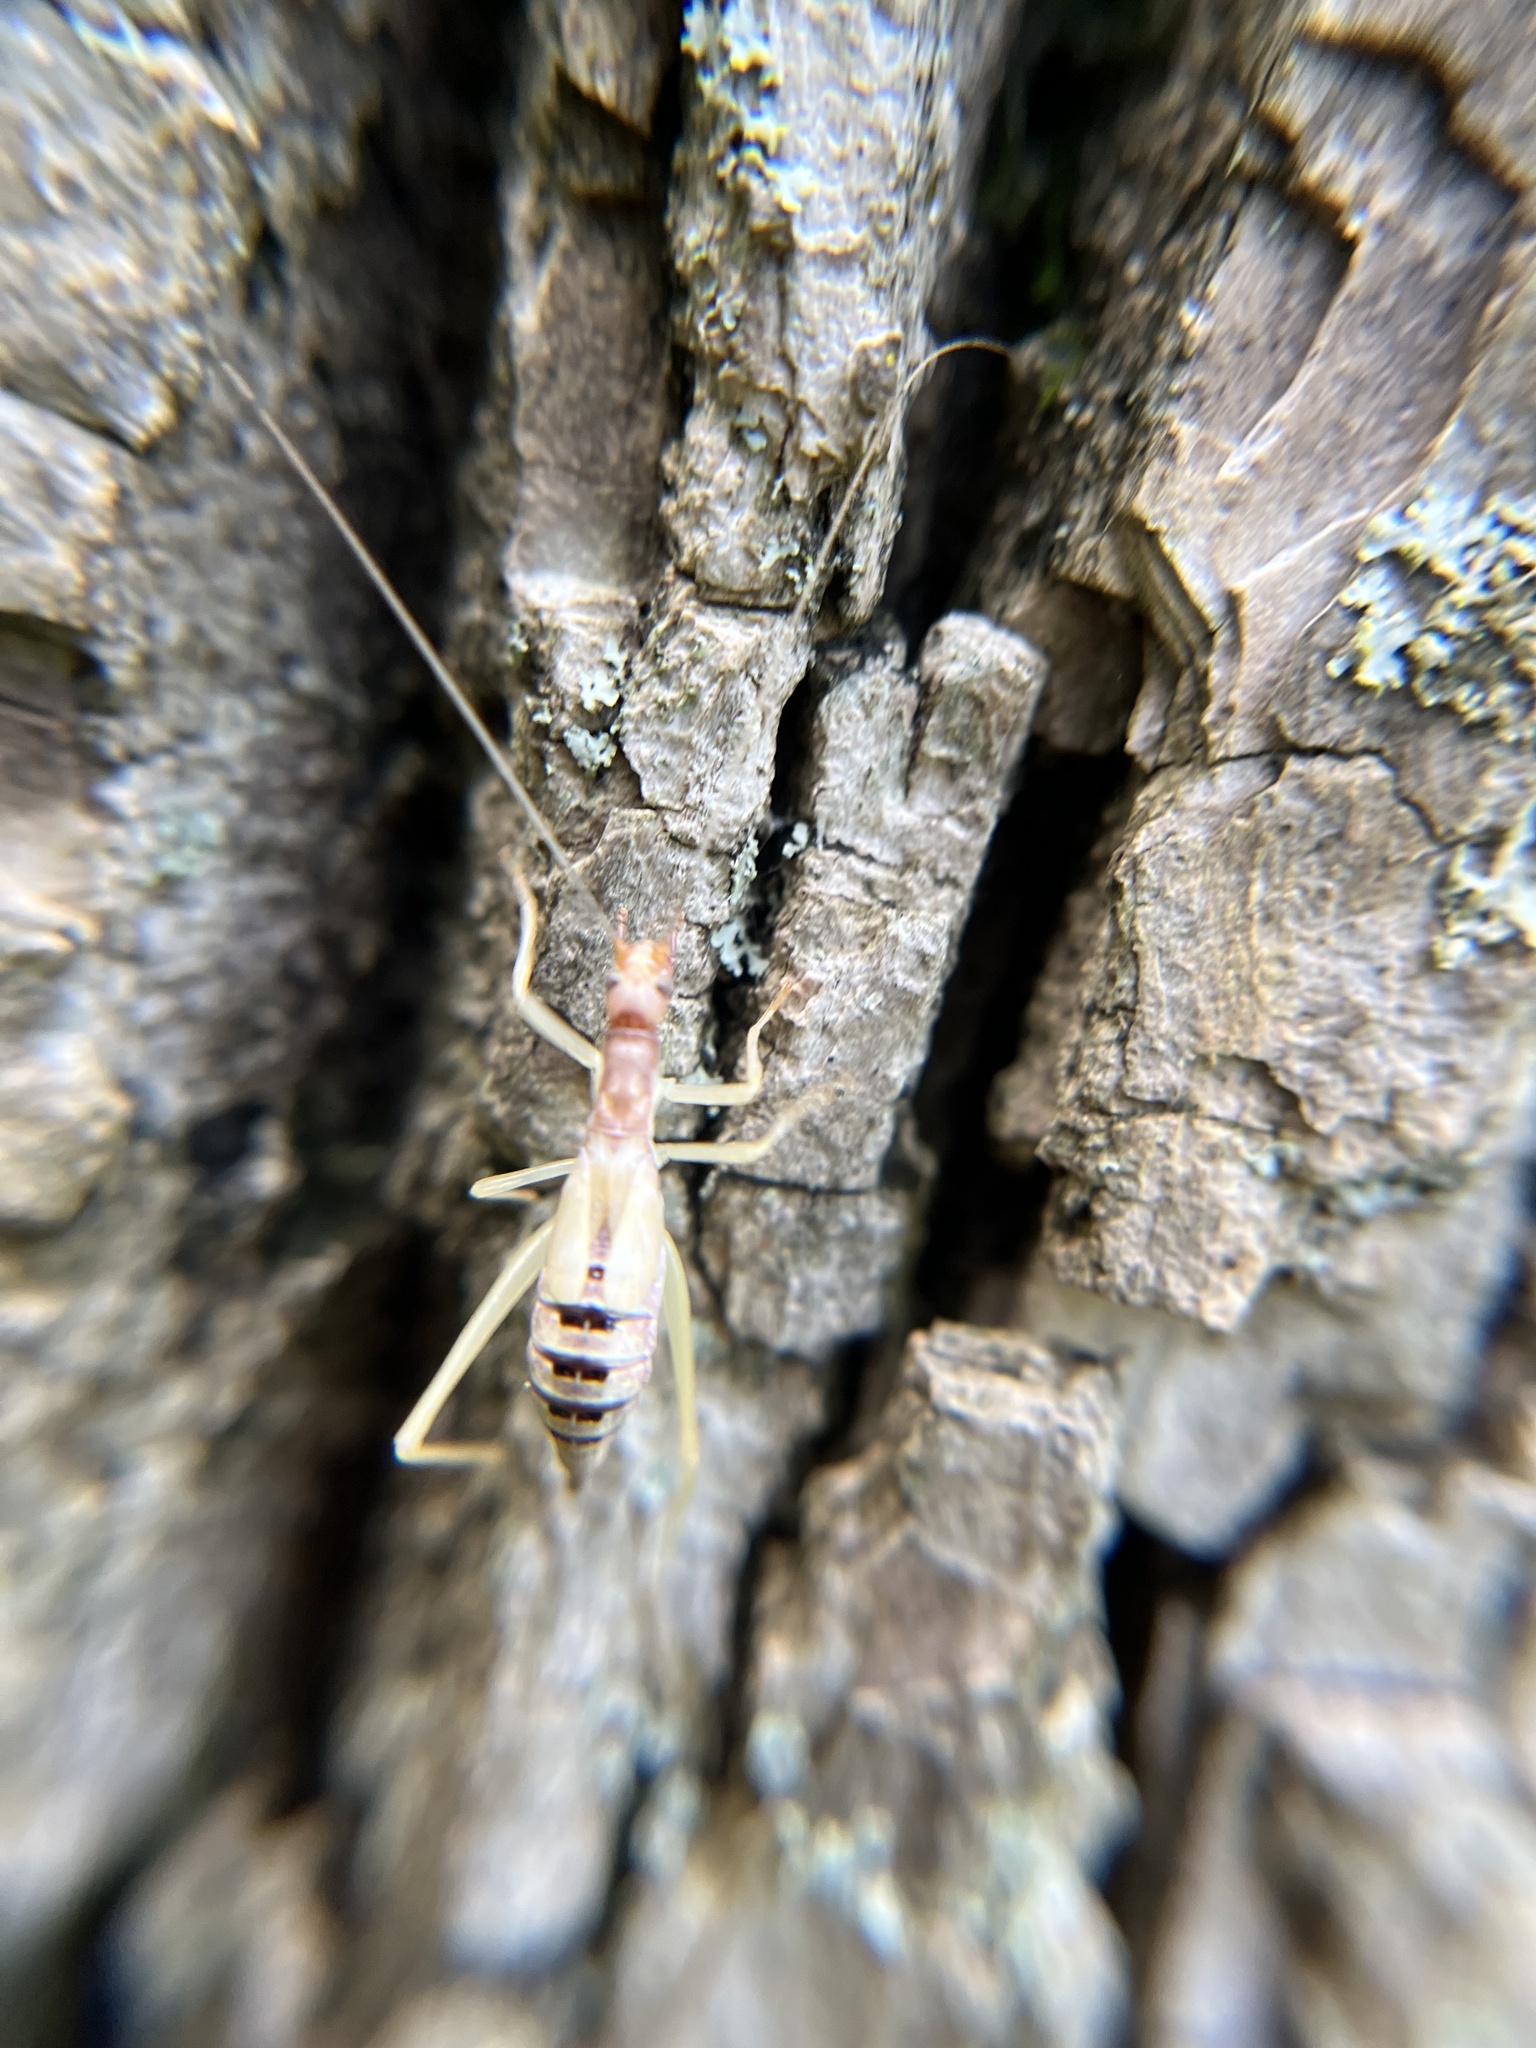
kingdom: Animalia
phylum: Arthropoda
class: Insecta
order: Orthoptera
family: Gryllidae
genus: Neoxabea
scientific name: Neoxabea bipunctata
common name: Two-spotted tree cricket
